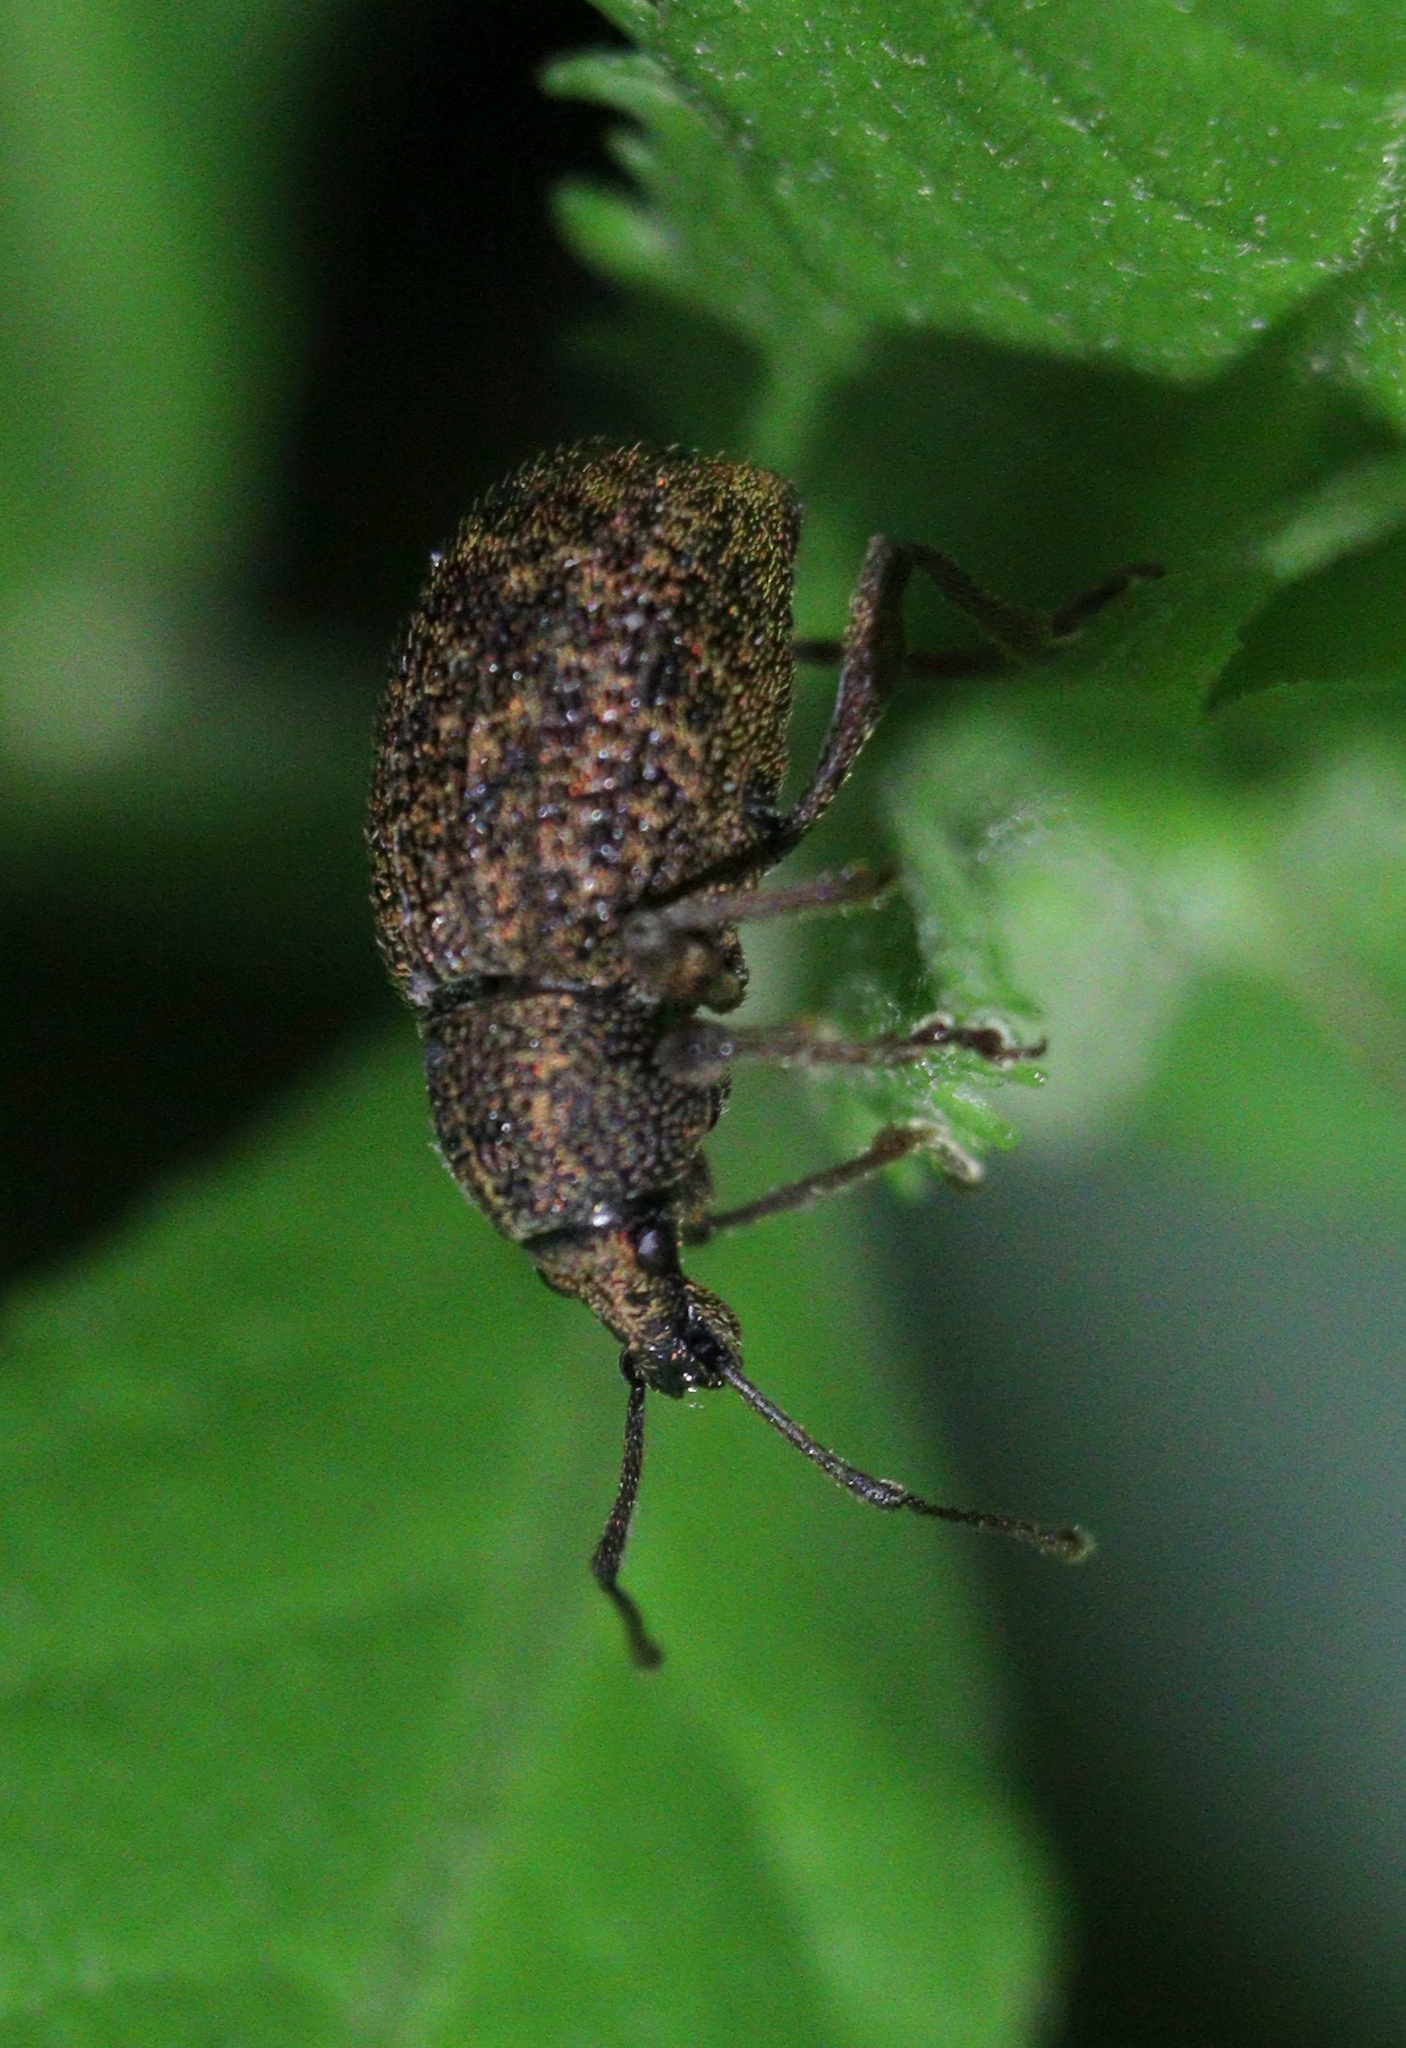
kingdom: Animalia
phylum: Arthropoda
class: Insecta
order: Coleoptera
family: Curculionidae
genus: Otiorhynchus
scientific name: Otiorhynchus kollari
